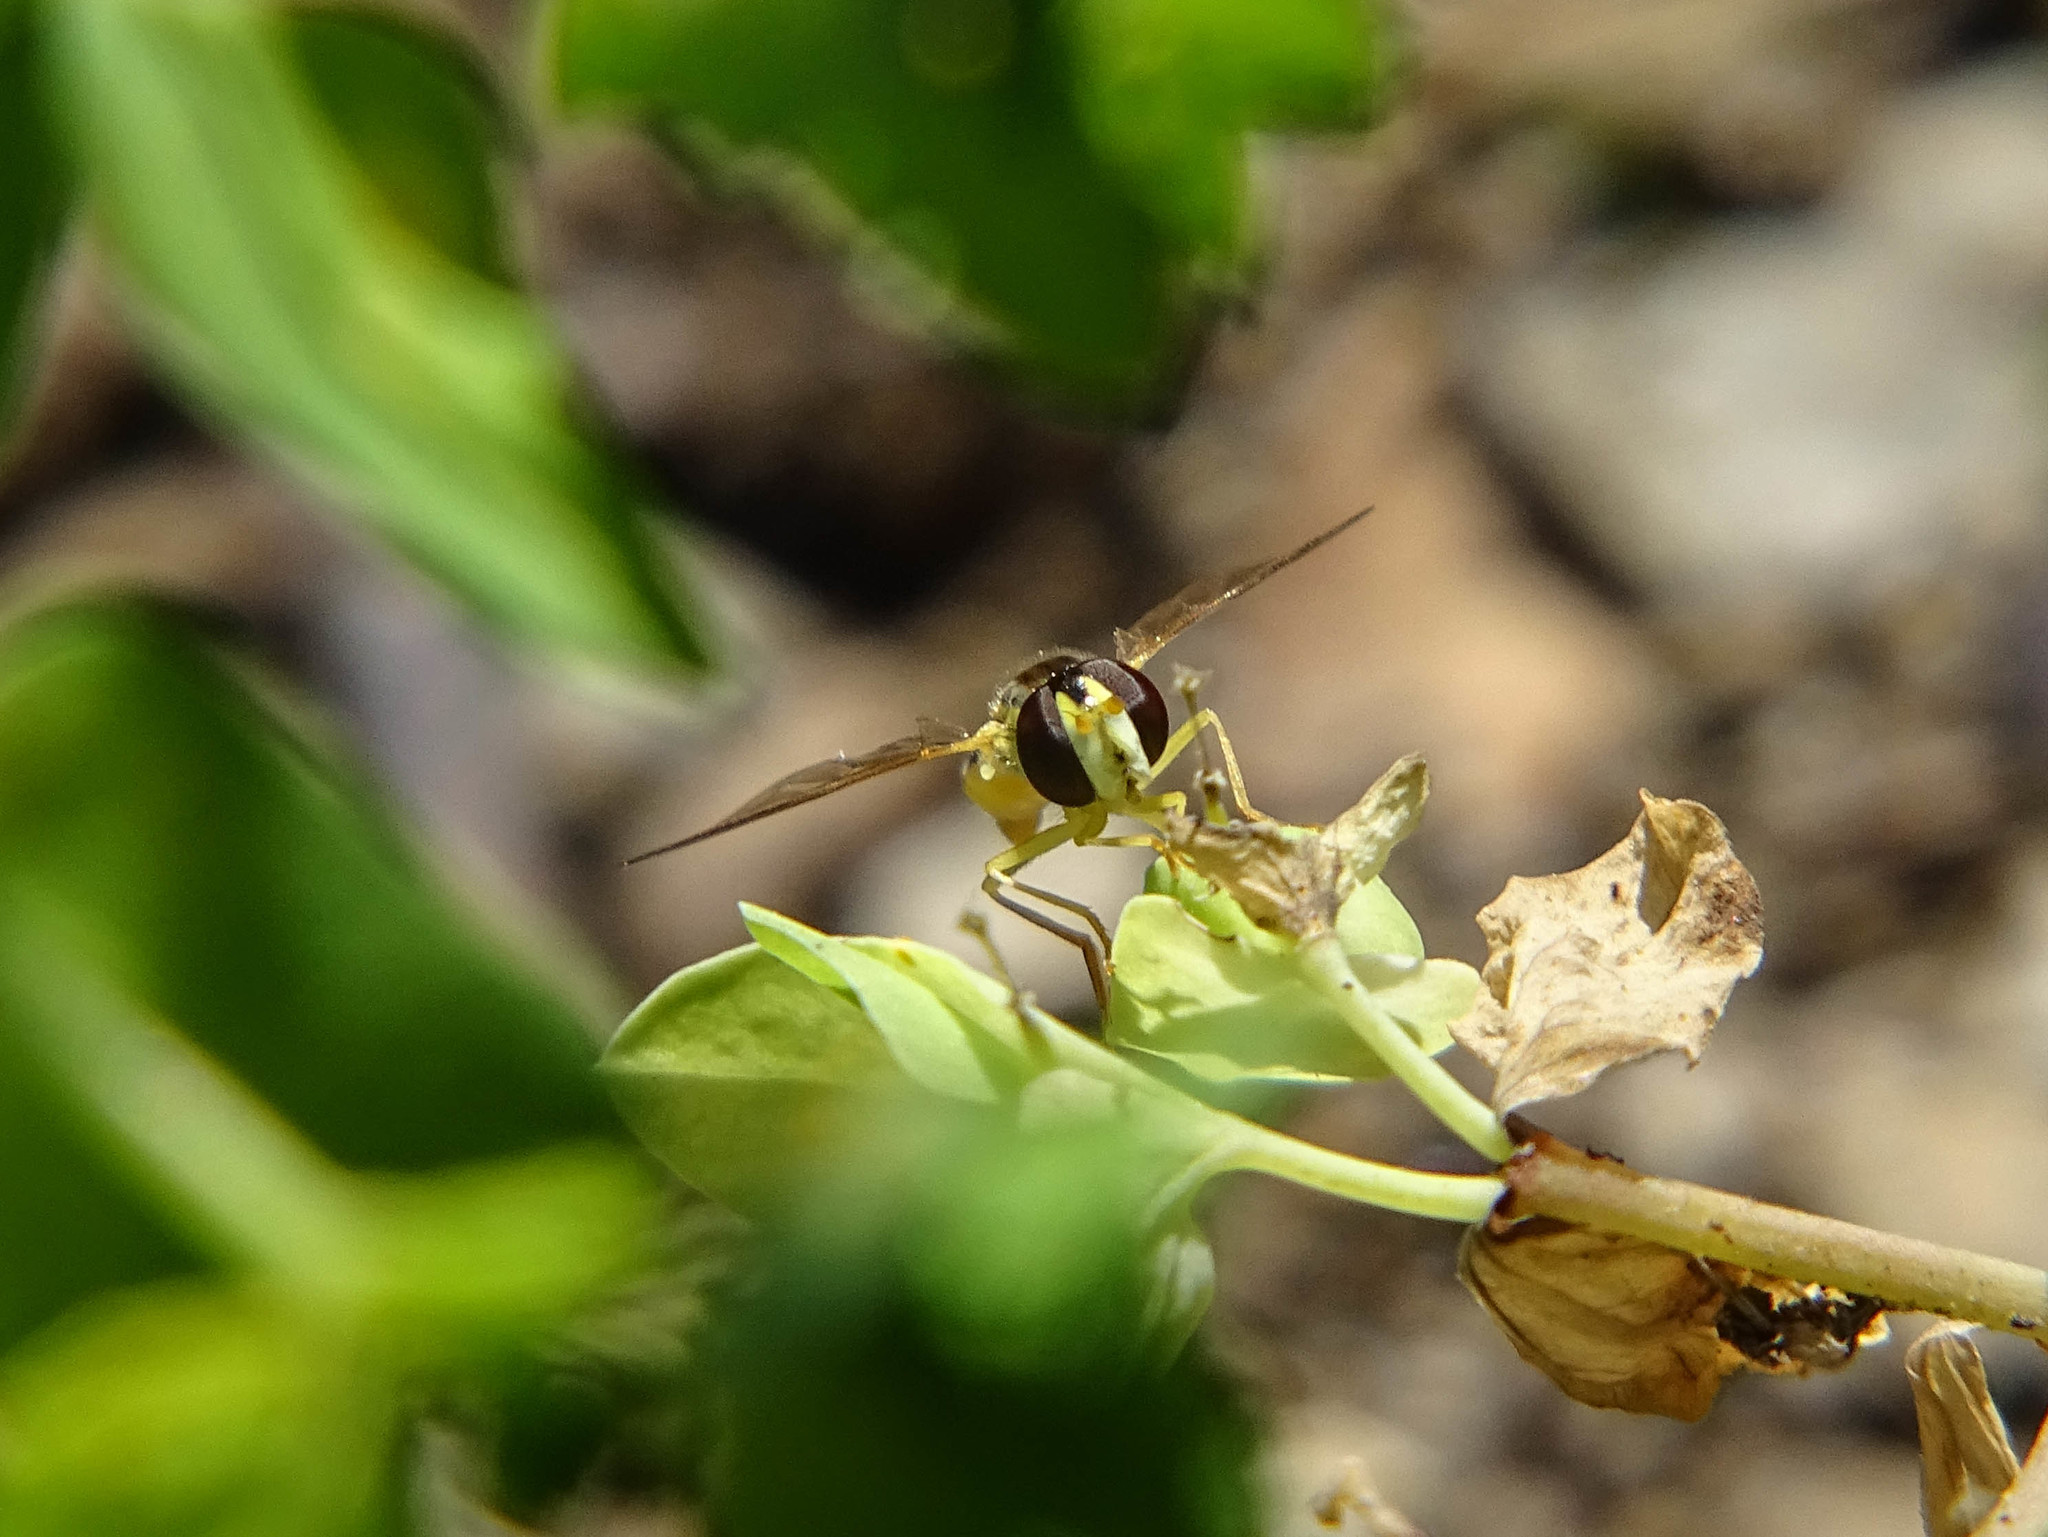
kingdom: Animalia
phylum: Arthropoda
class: Insecta
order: Diptera
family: Syrphidae
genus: Sphaerophoria
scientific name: Sphaerophoria
